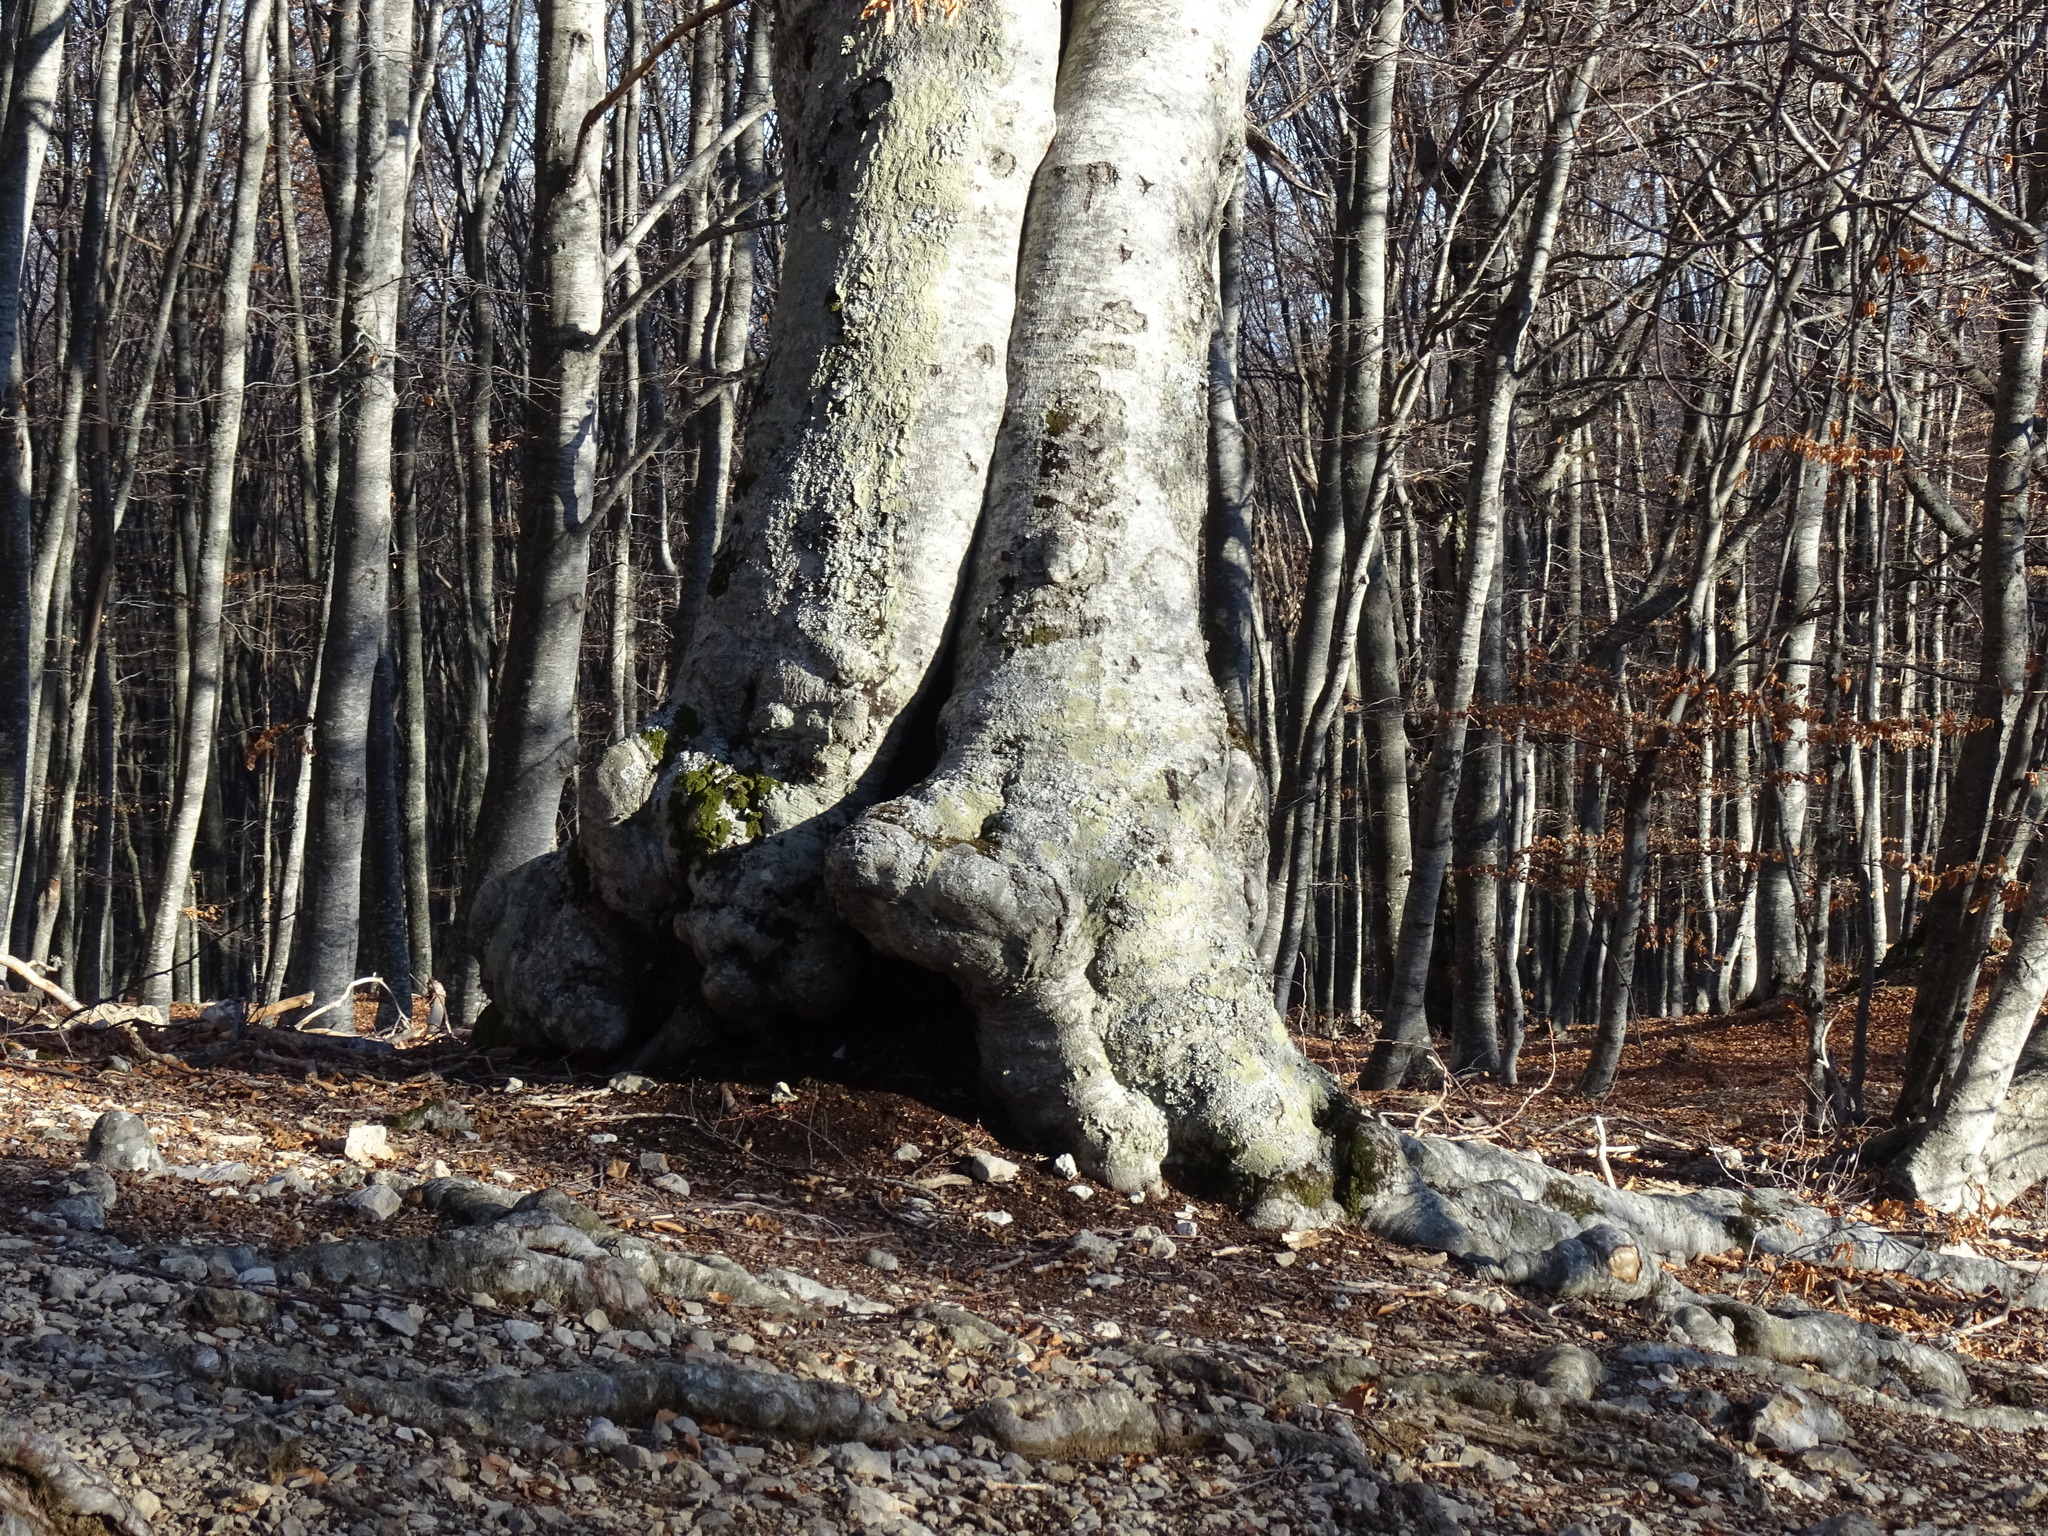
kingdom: Plantae
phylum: Tracheophyta
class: Magnoliopsida
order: Fagales
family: Fagaceae
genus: Fagus
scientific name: Fagus taurica
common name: Crimean beech
